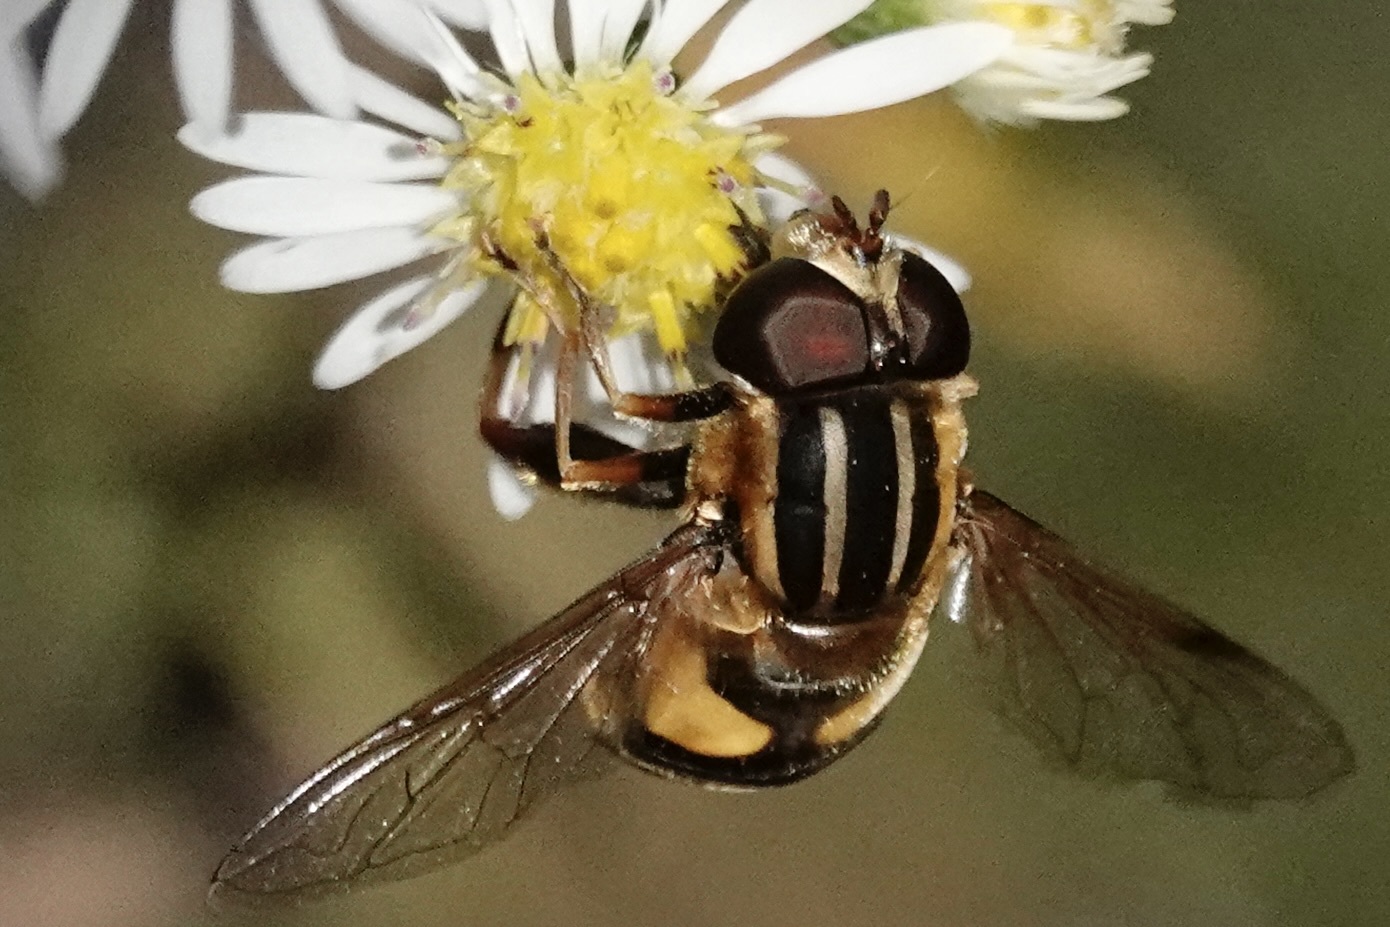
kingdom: Animalia
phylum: Arthropoda
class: Insecta
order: Diptera
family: Syrphidae
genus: Helophilus
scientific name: Helophilus fasciatus
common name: Narrow-headed marsh fly
